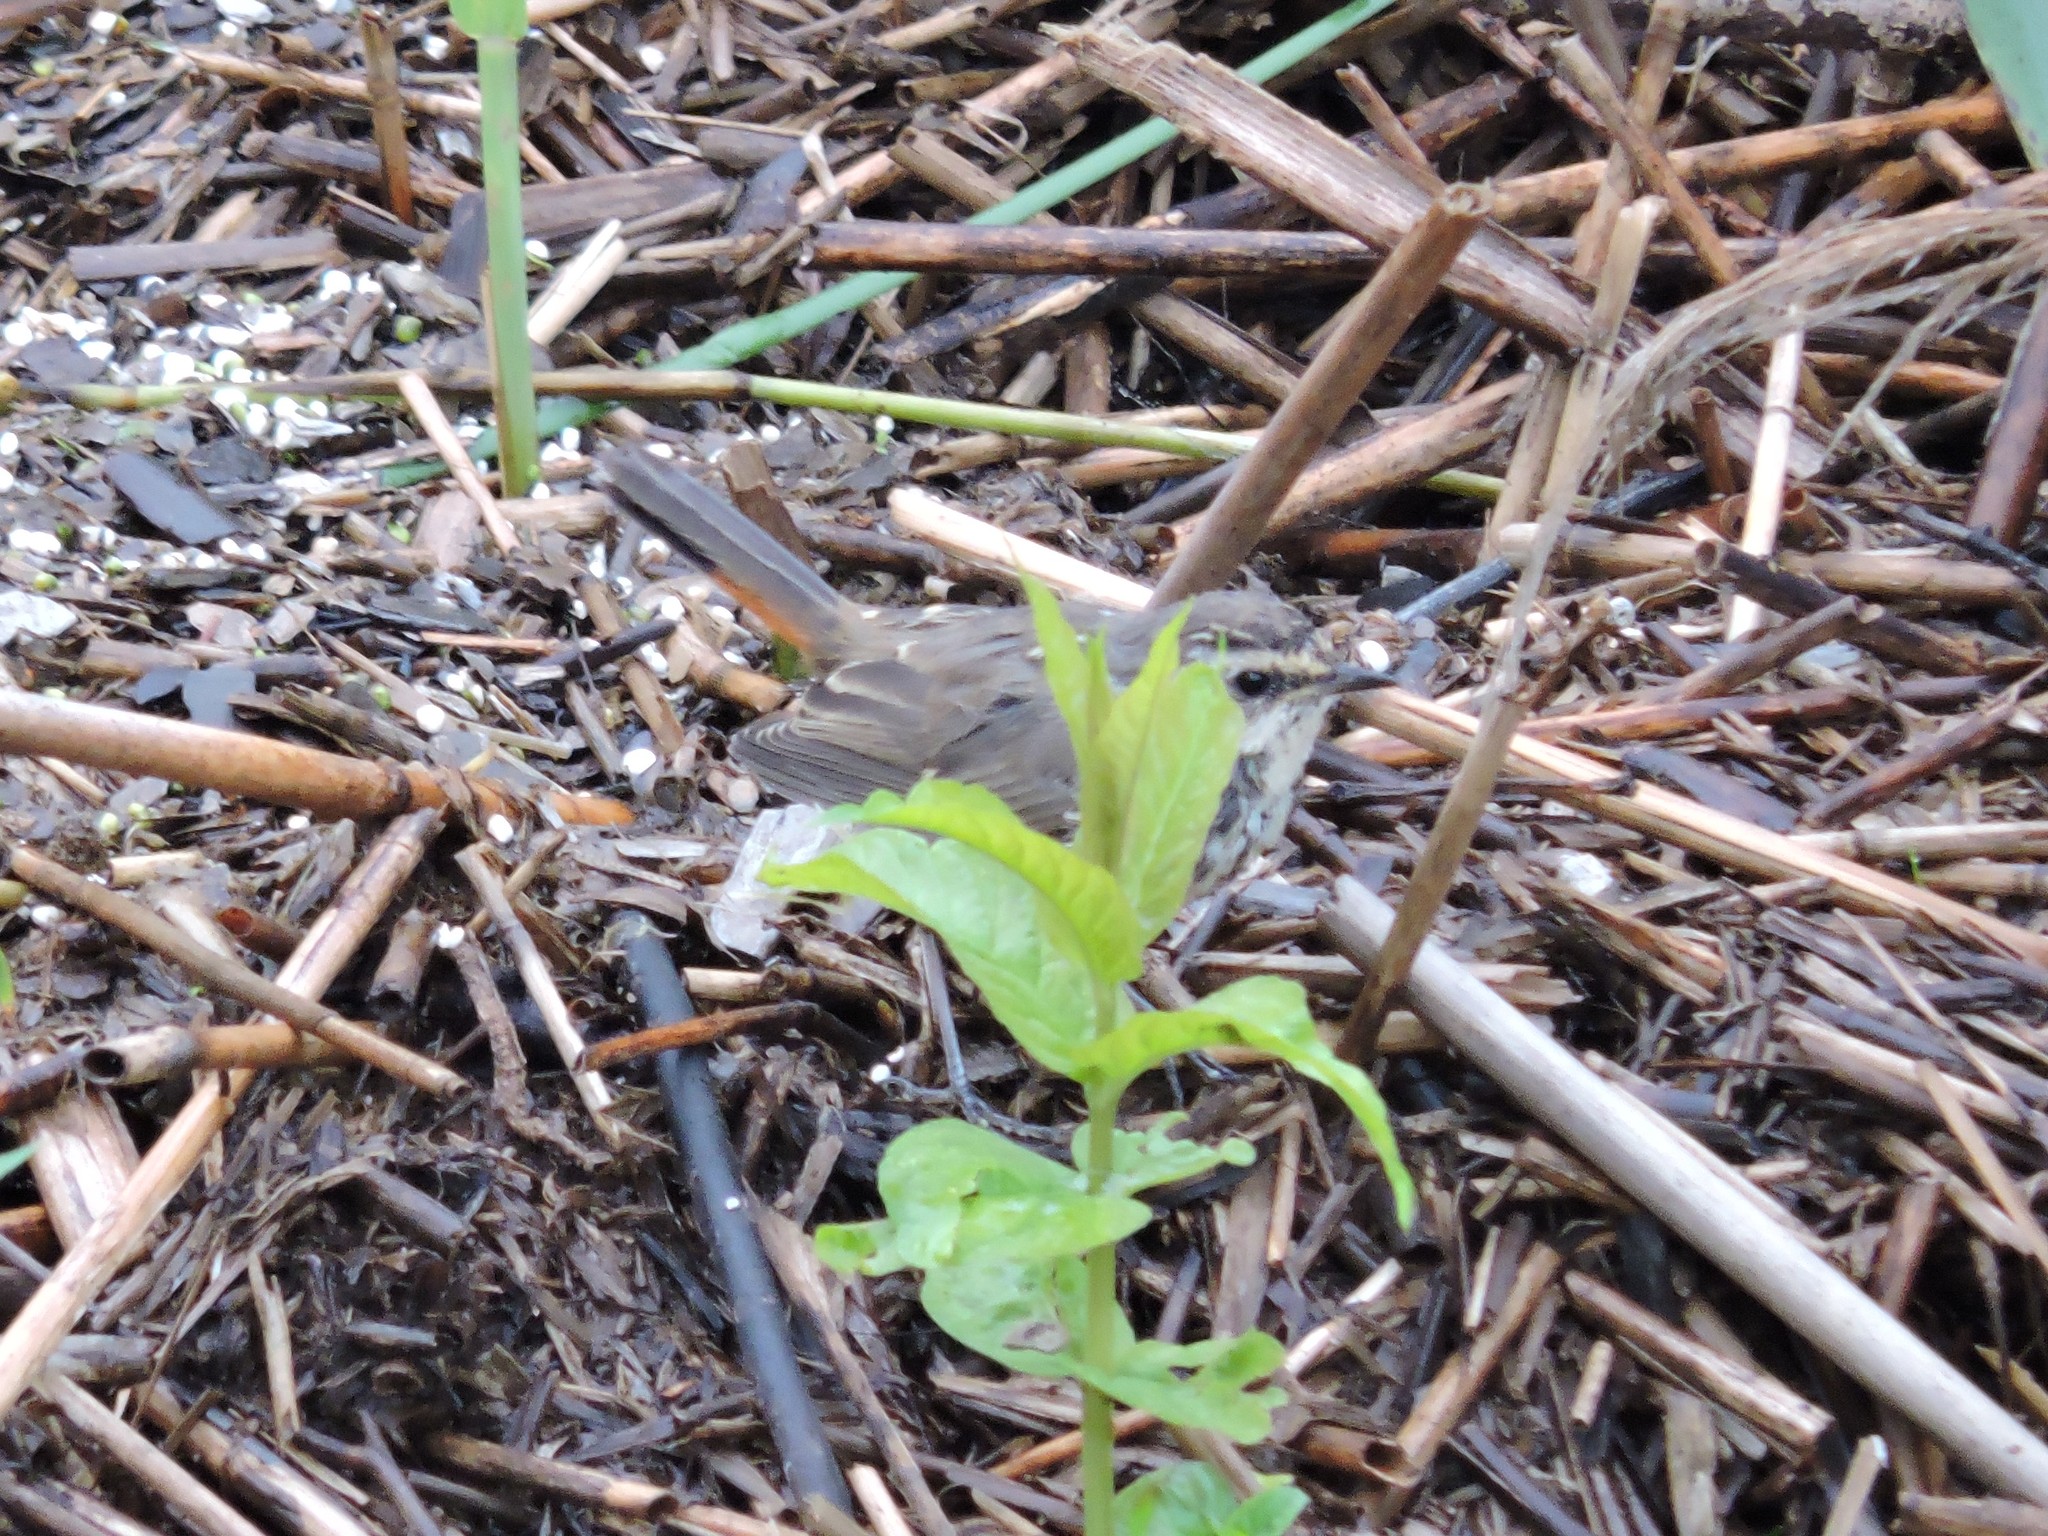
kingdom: Animalia
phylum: Chordata
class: Aves
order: Passeriformes
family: Muscicapidae
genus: Luscinia
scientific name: Luscinia svecica
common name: Bluethroat
